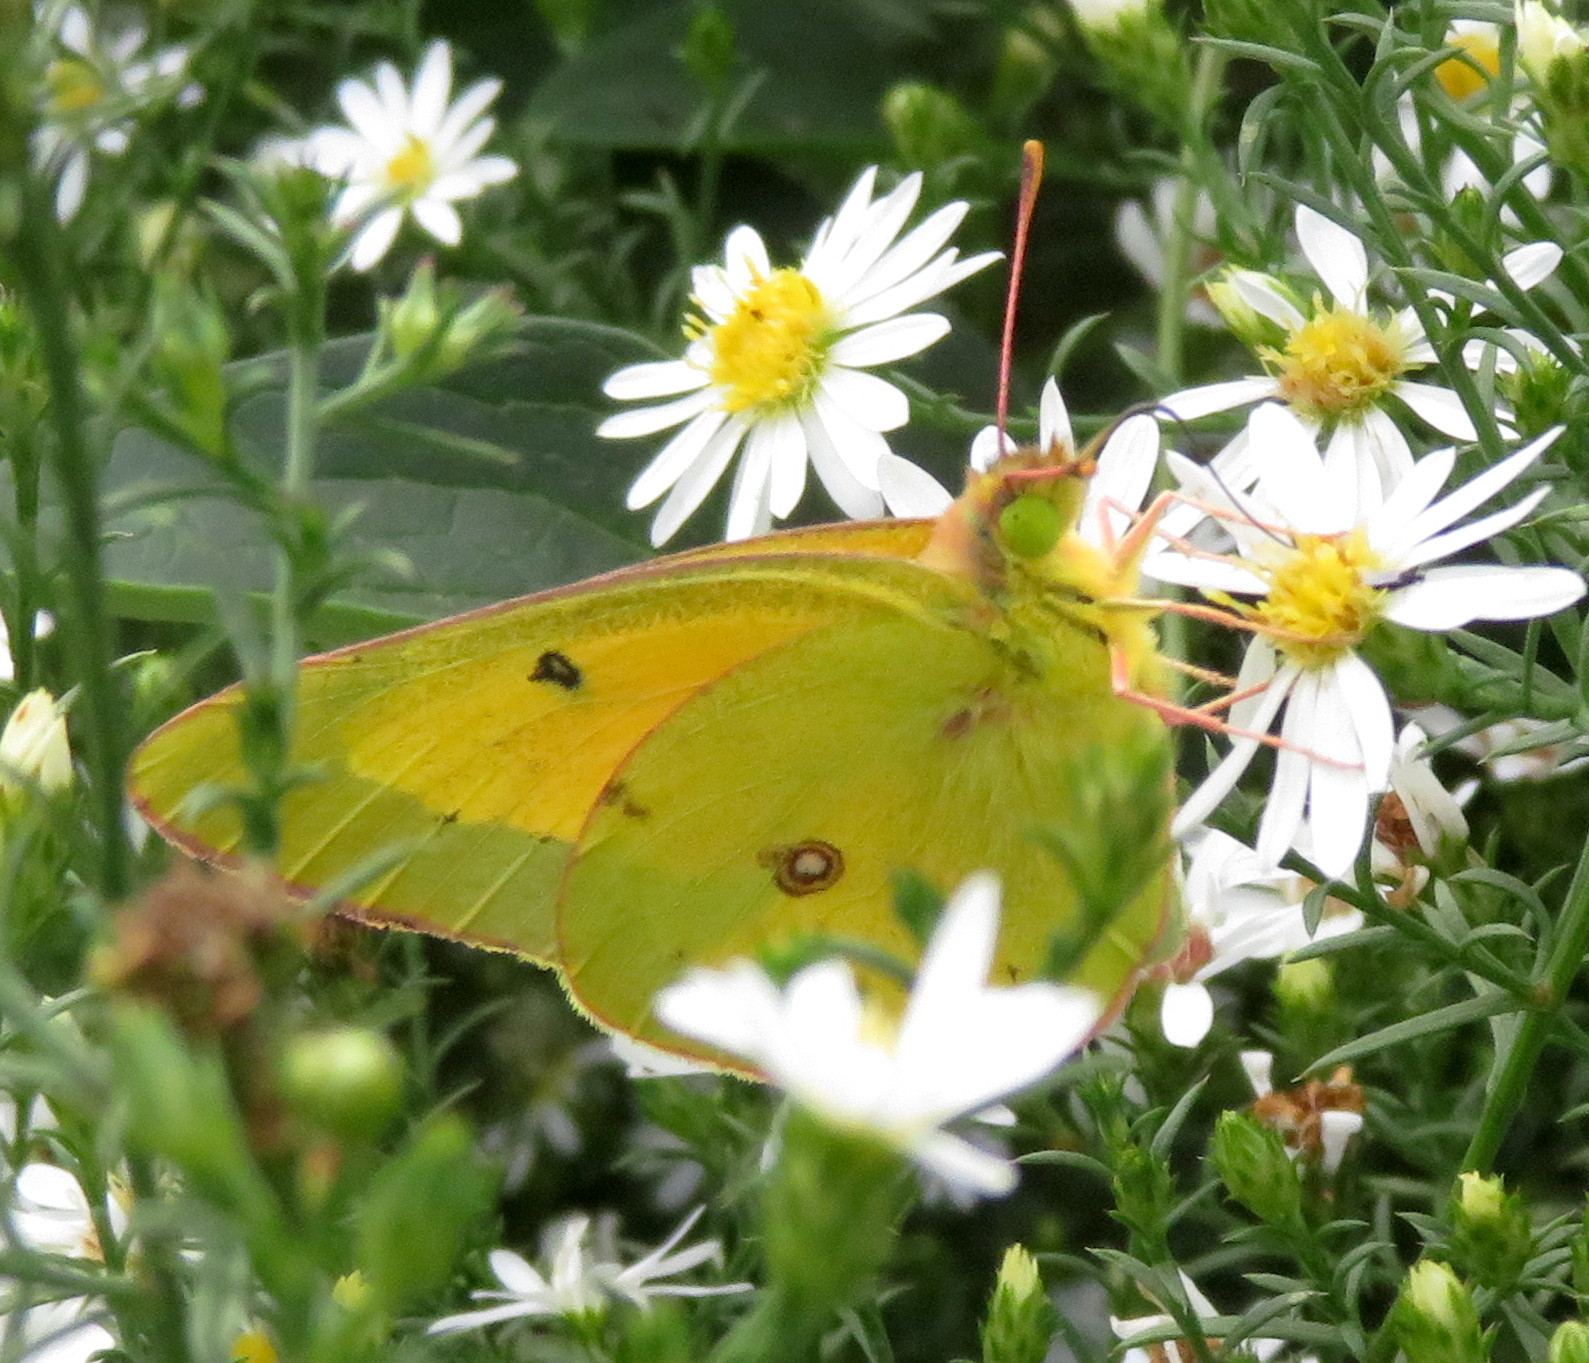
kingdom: Animalia
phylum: Arthropoda
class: Insecta
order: Lepidoptera
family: Pieridae
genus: Colias
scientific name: Colias eurytheme
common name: Alfalfa butterfly
